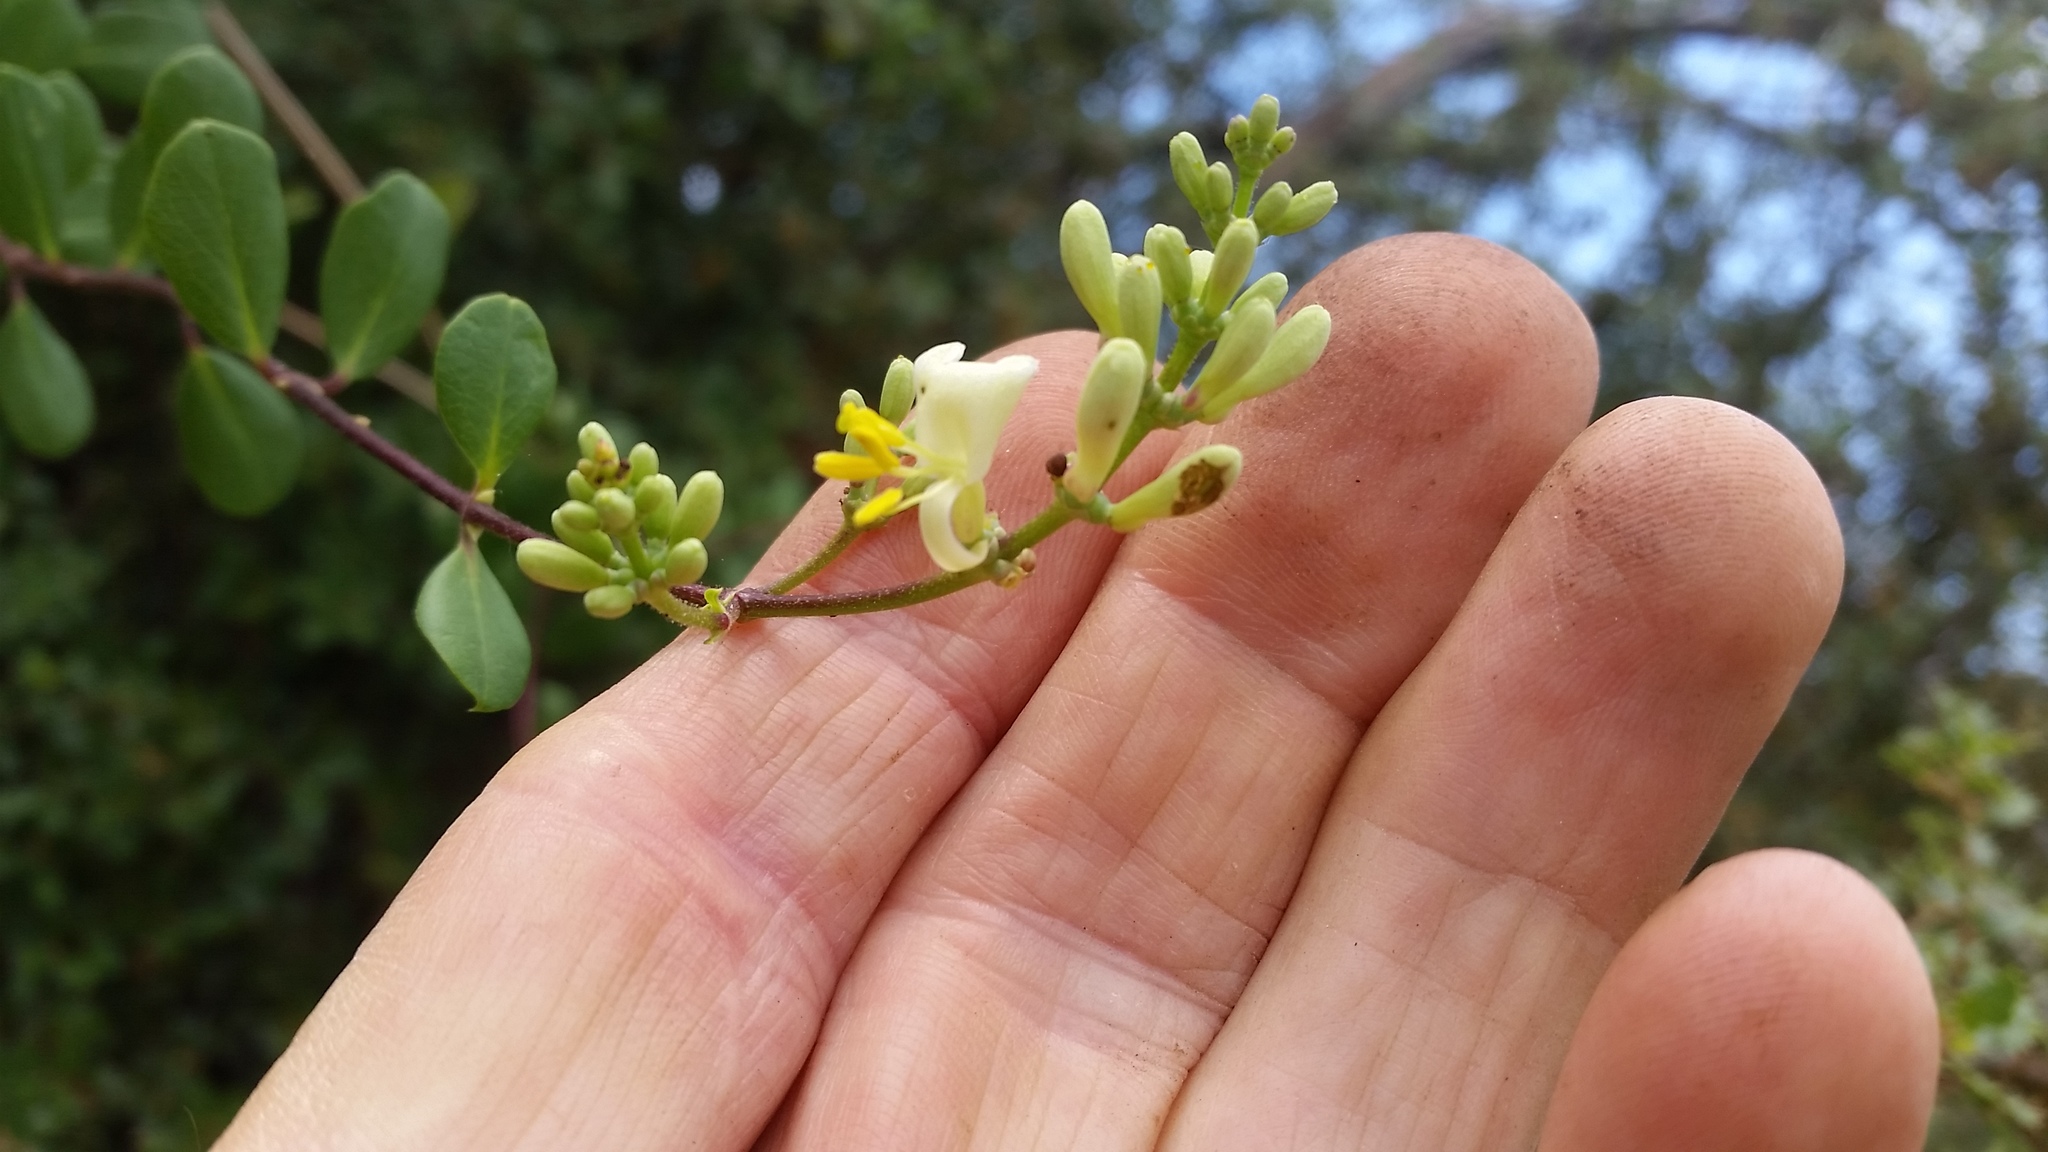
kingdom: Plantae
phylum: Tracheophyta
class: Magnoliopsida
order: Dipsacales
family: Caprifoliaceae
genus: Lonicera
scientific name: Lonicera subspicata
